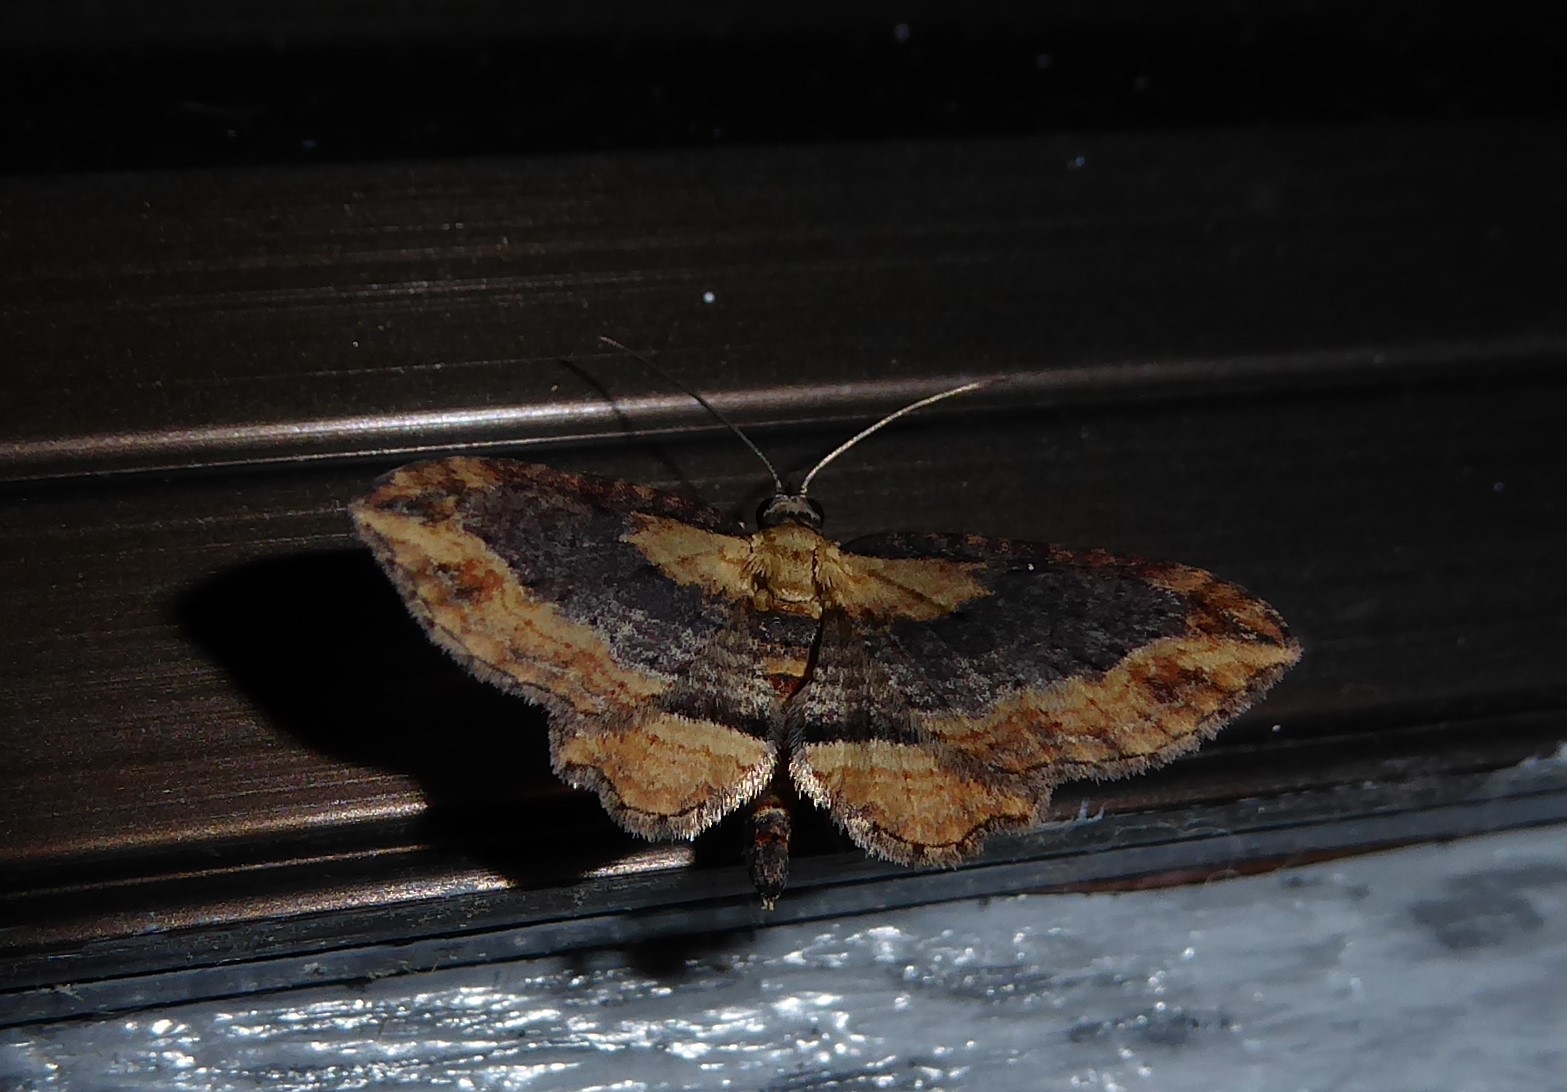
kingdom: Animalia
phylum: Arthropoda
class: Insecta
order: Lepidoptera
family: Geometridae
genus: Chloroclystis
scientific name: Chloroclystis filata
